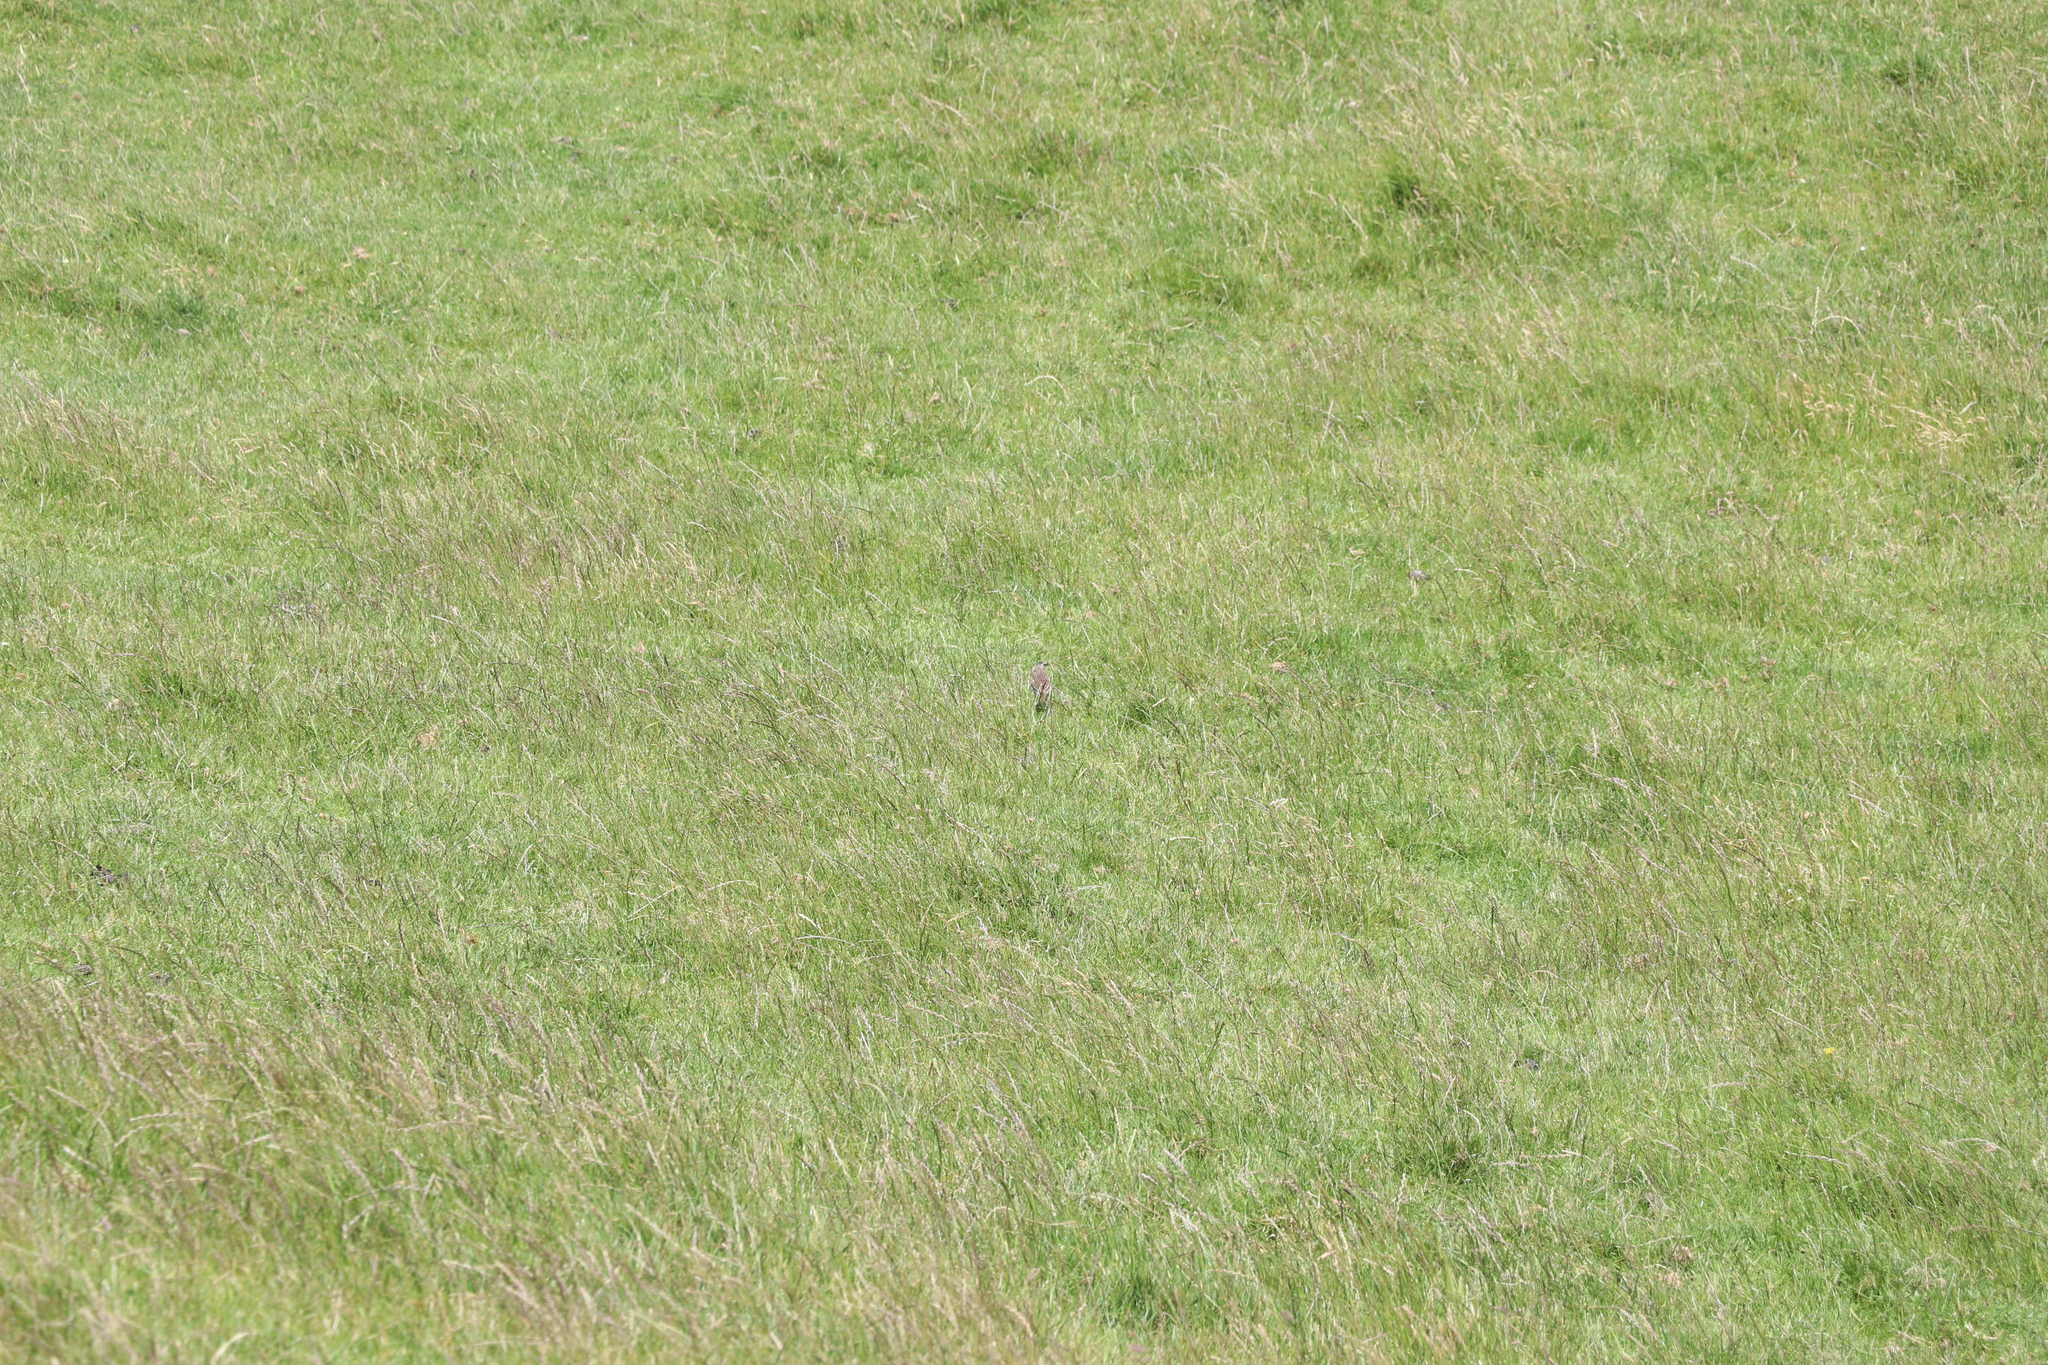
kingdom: Animalia
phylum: Chordata
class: Aves
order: Passeriformes
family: Motacillidae
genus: Anthus
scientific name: Anthus novaeseelandiae
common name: New zealand pipit
